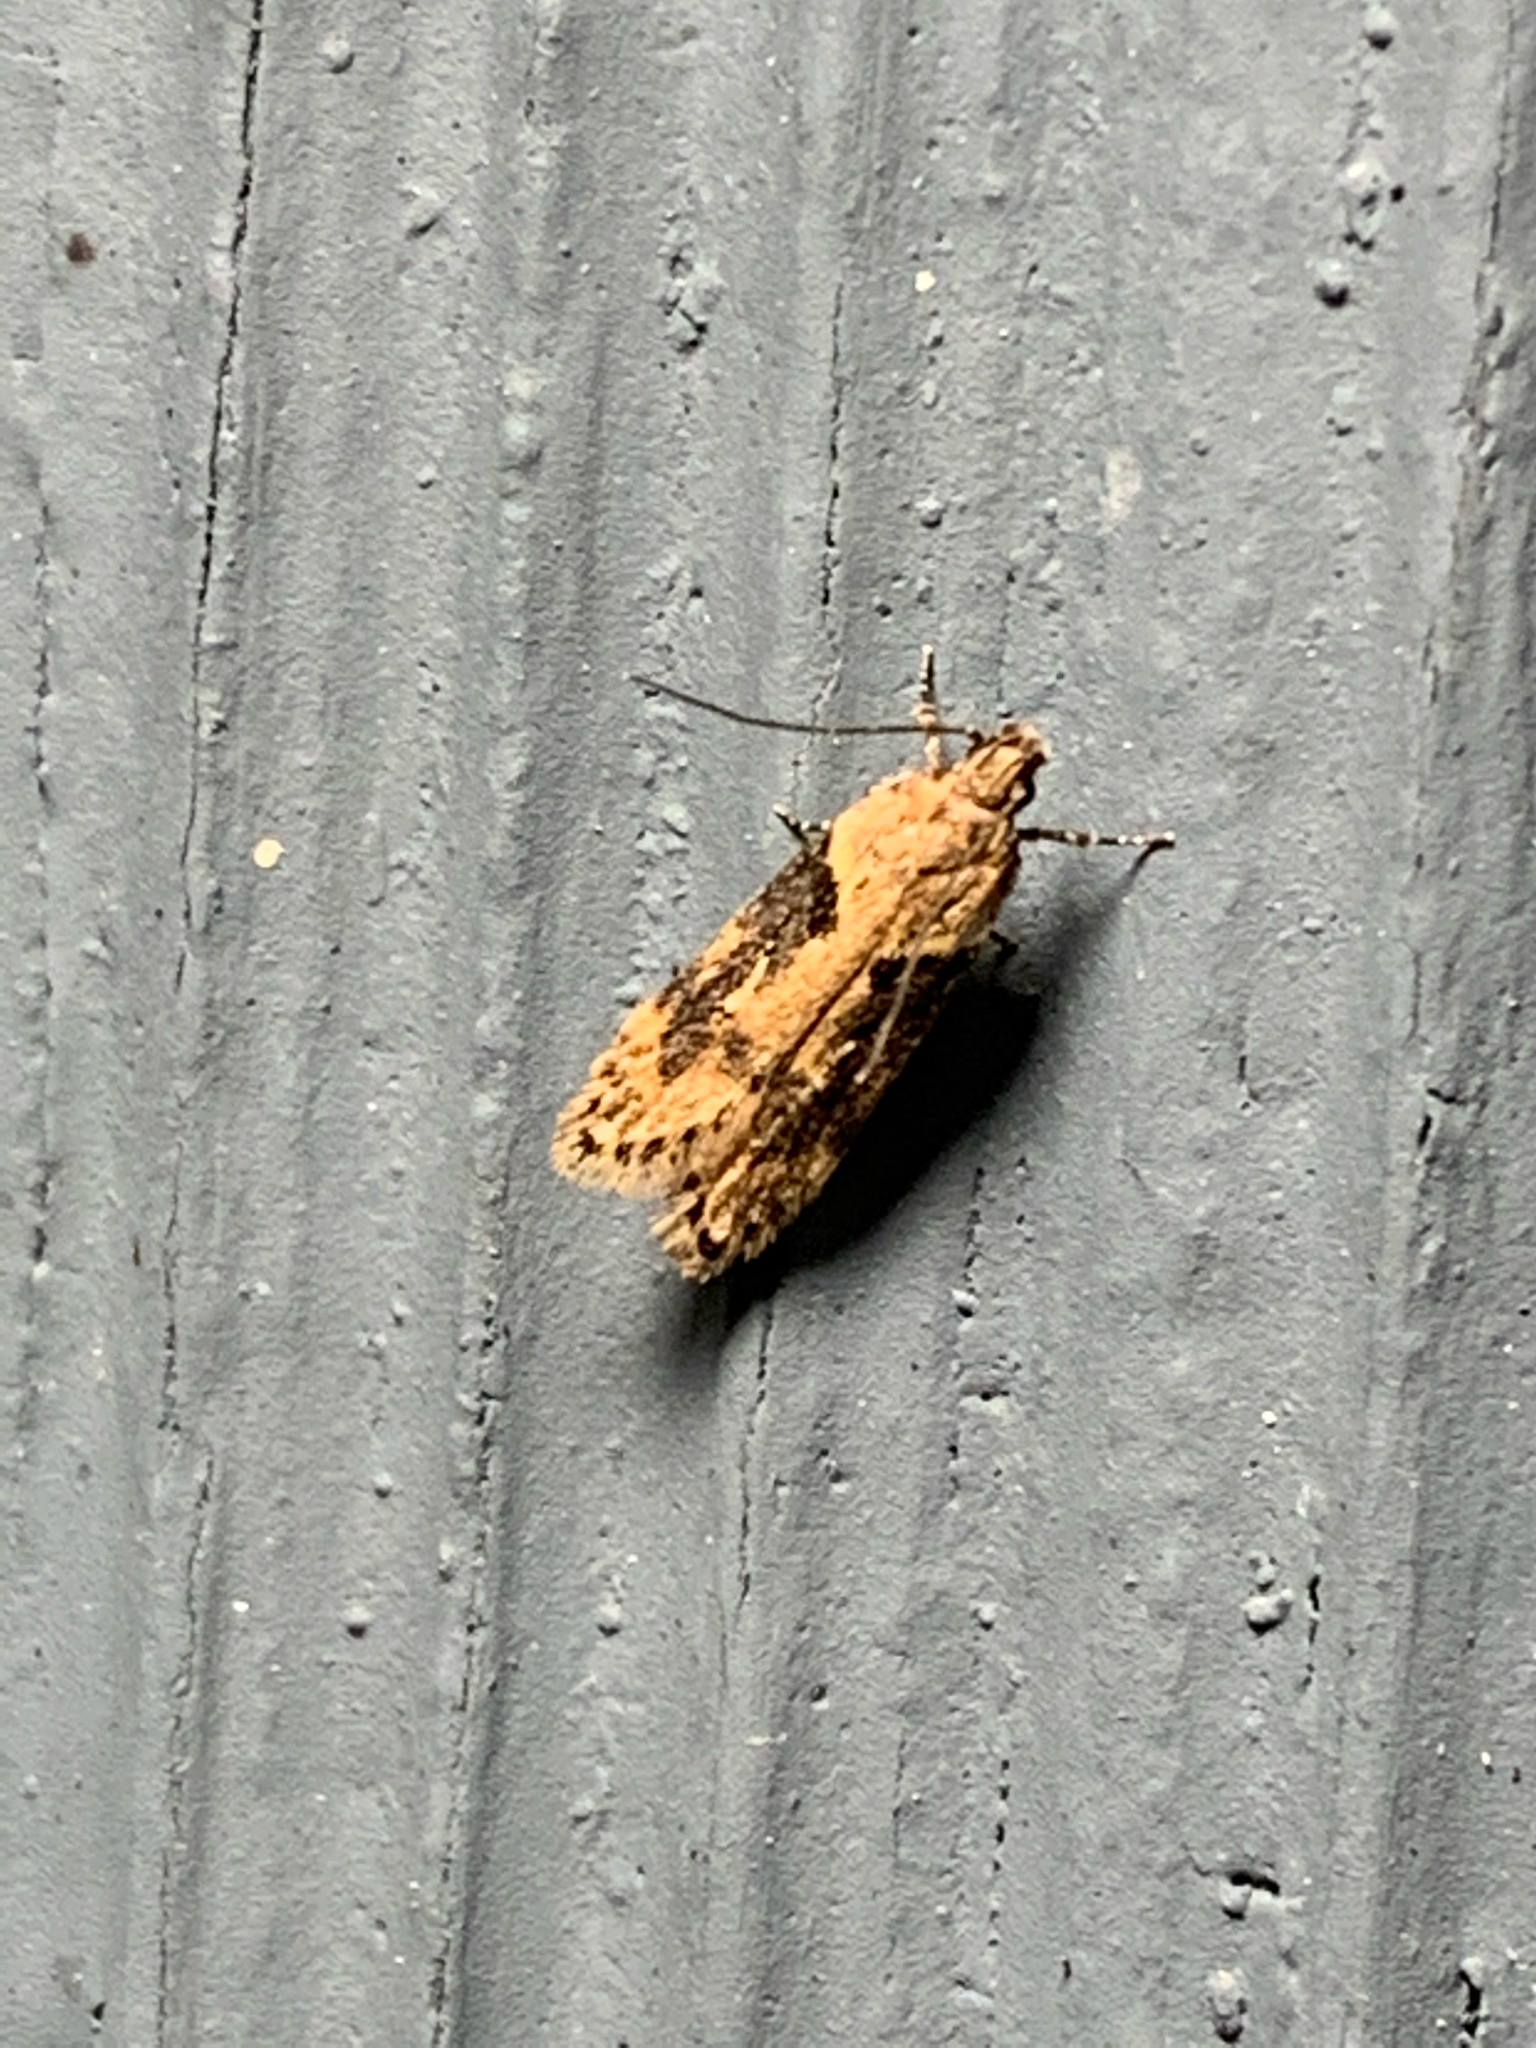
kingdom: Animalia
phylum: Arthropoda
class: Insecta
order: Lepidoptera
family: Gelechiidae
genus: Chionodes
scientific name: Chionodes mediofuscella
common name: Black-smudged chionodes moth
